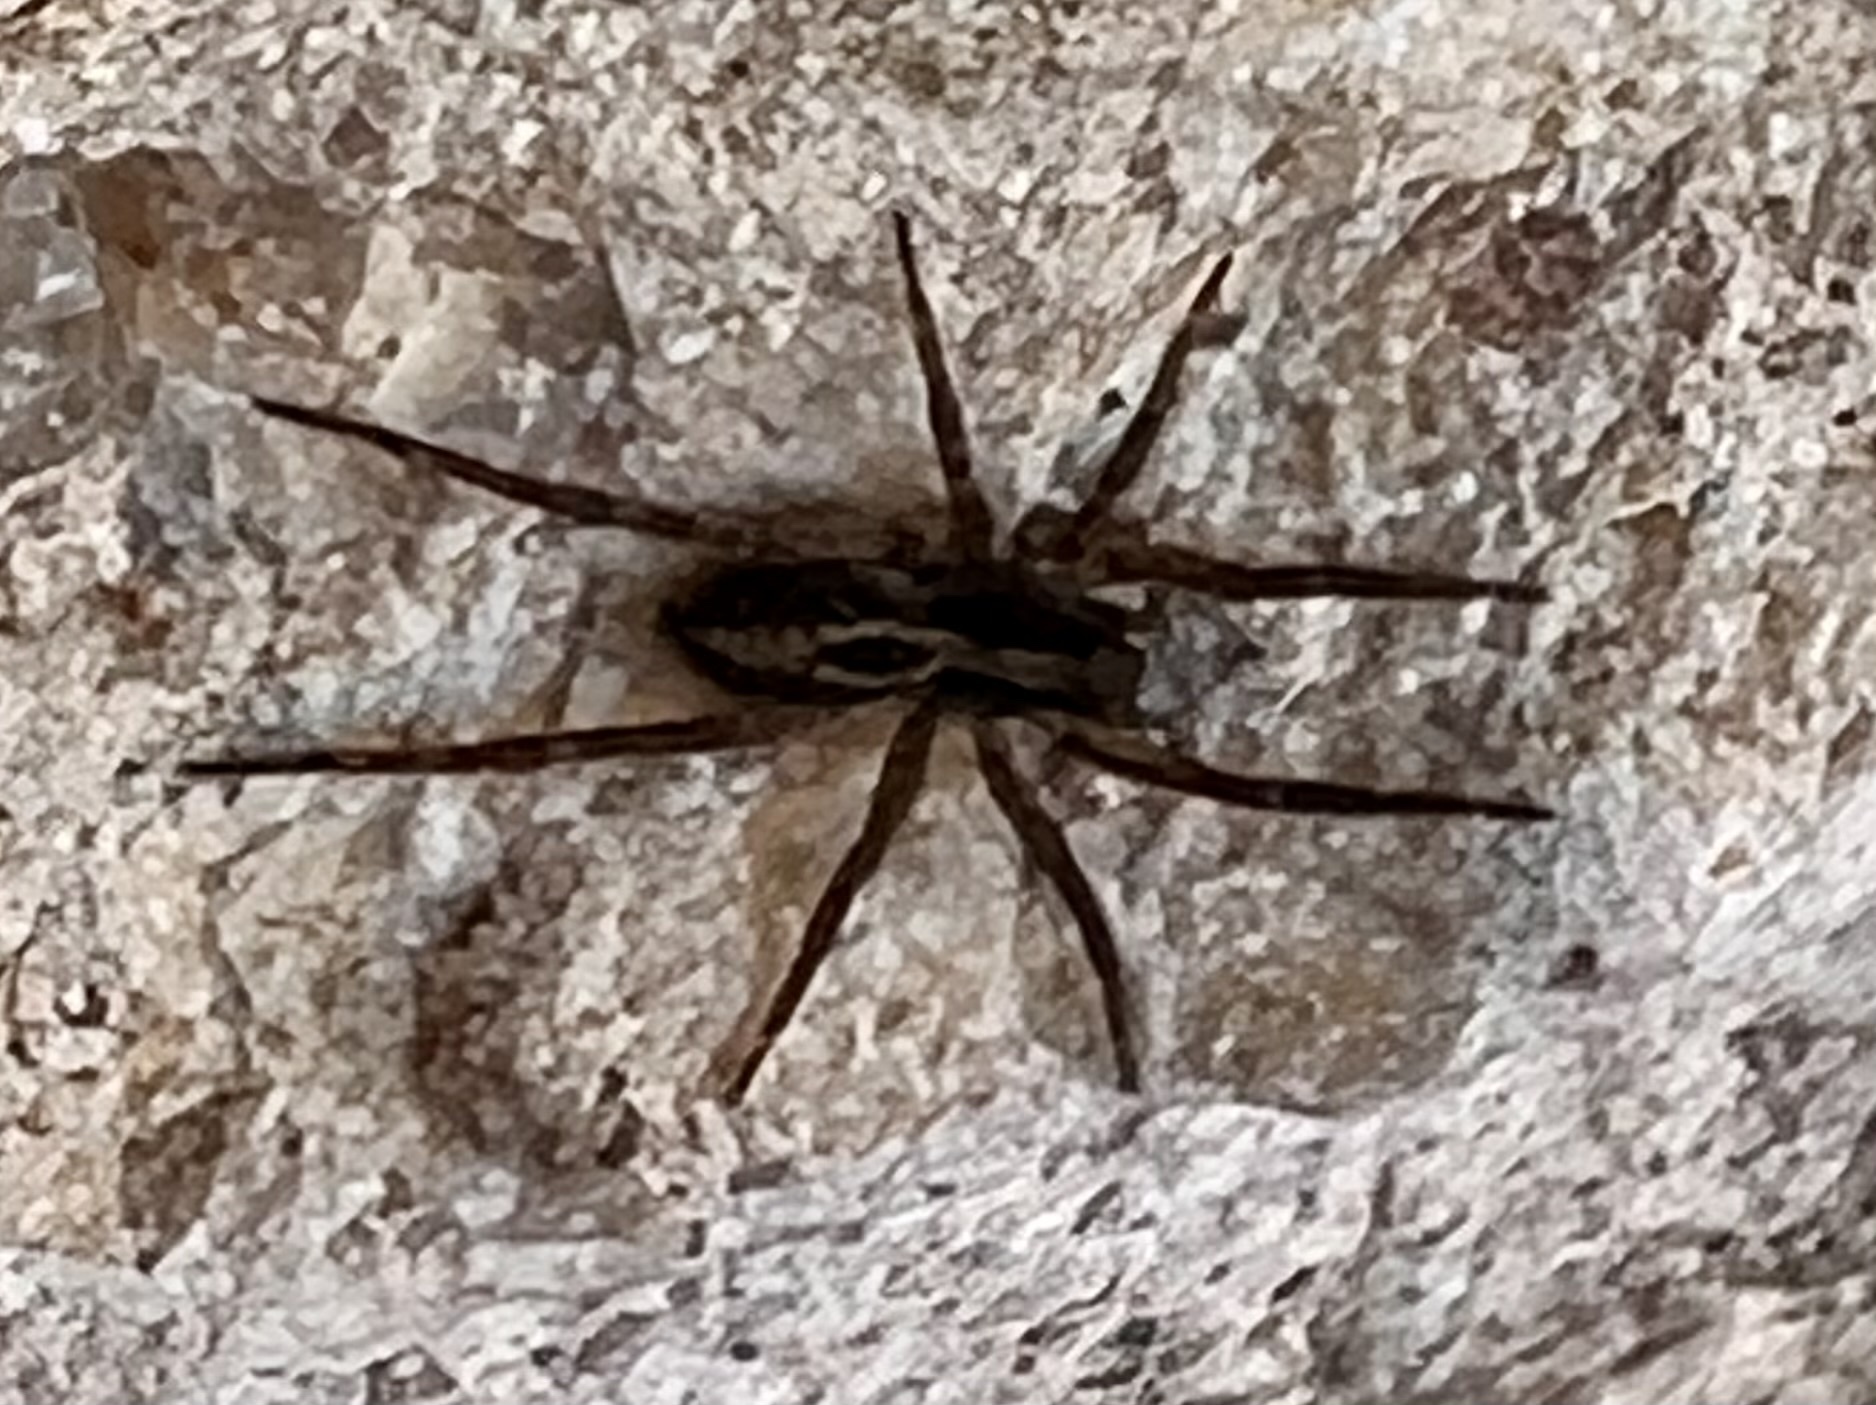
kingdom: Animalia
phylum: Arthropoda
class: Arachnida
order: Araneae
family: Lycosidae
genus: Schizocosa
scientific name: Schizocosa avida
